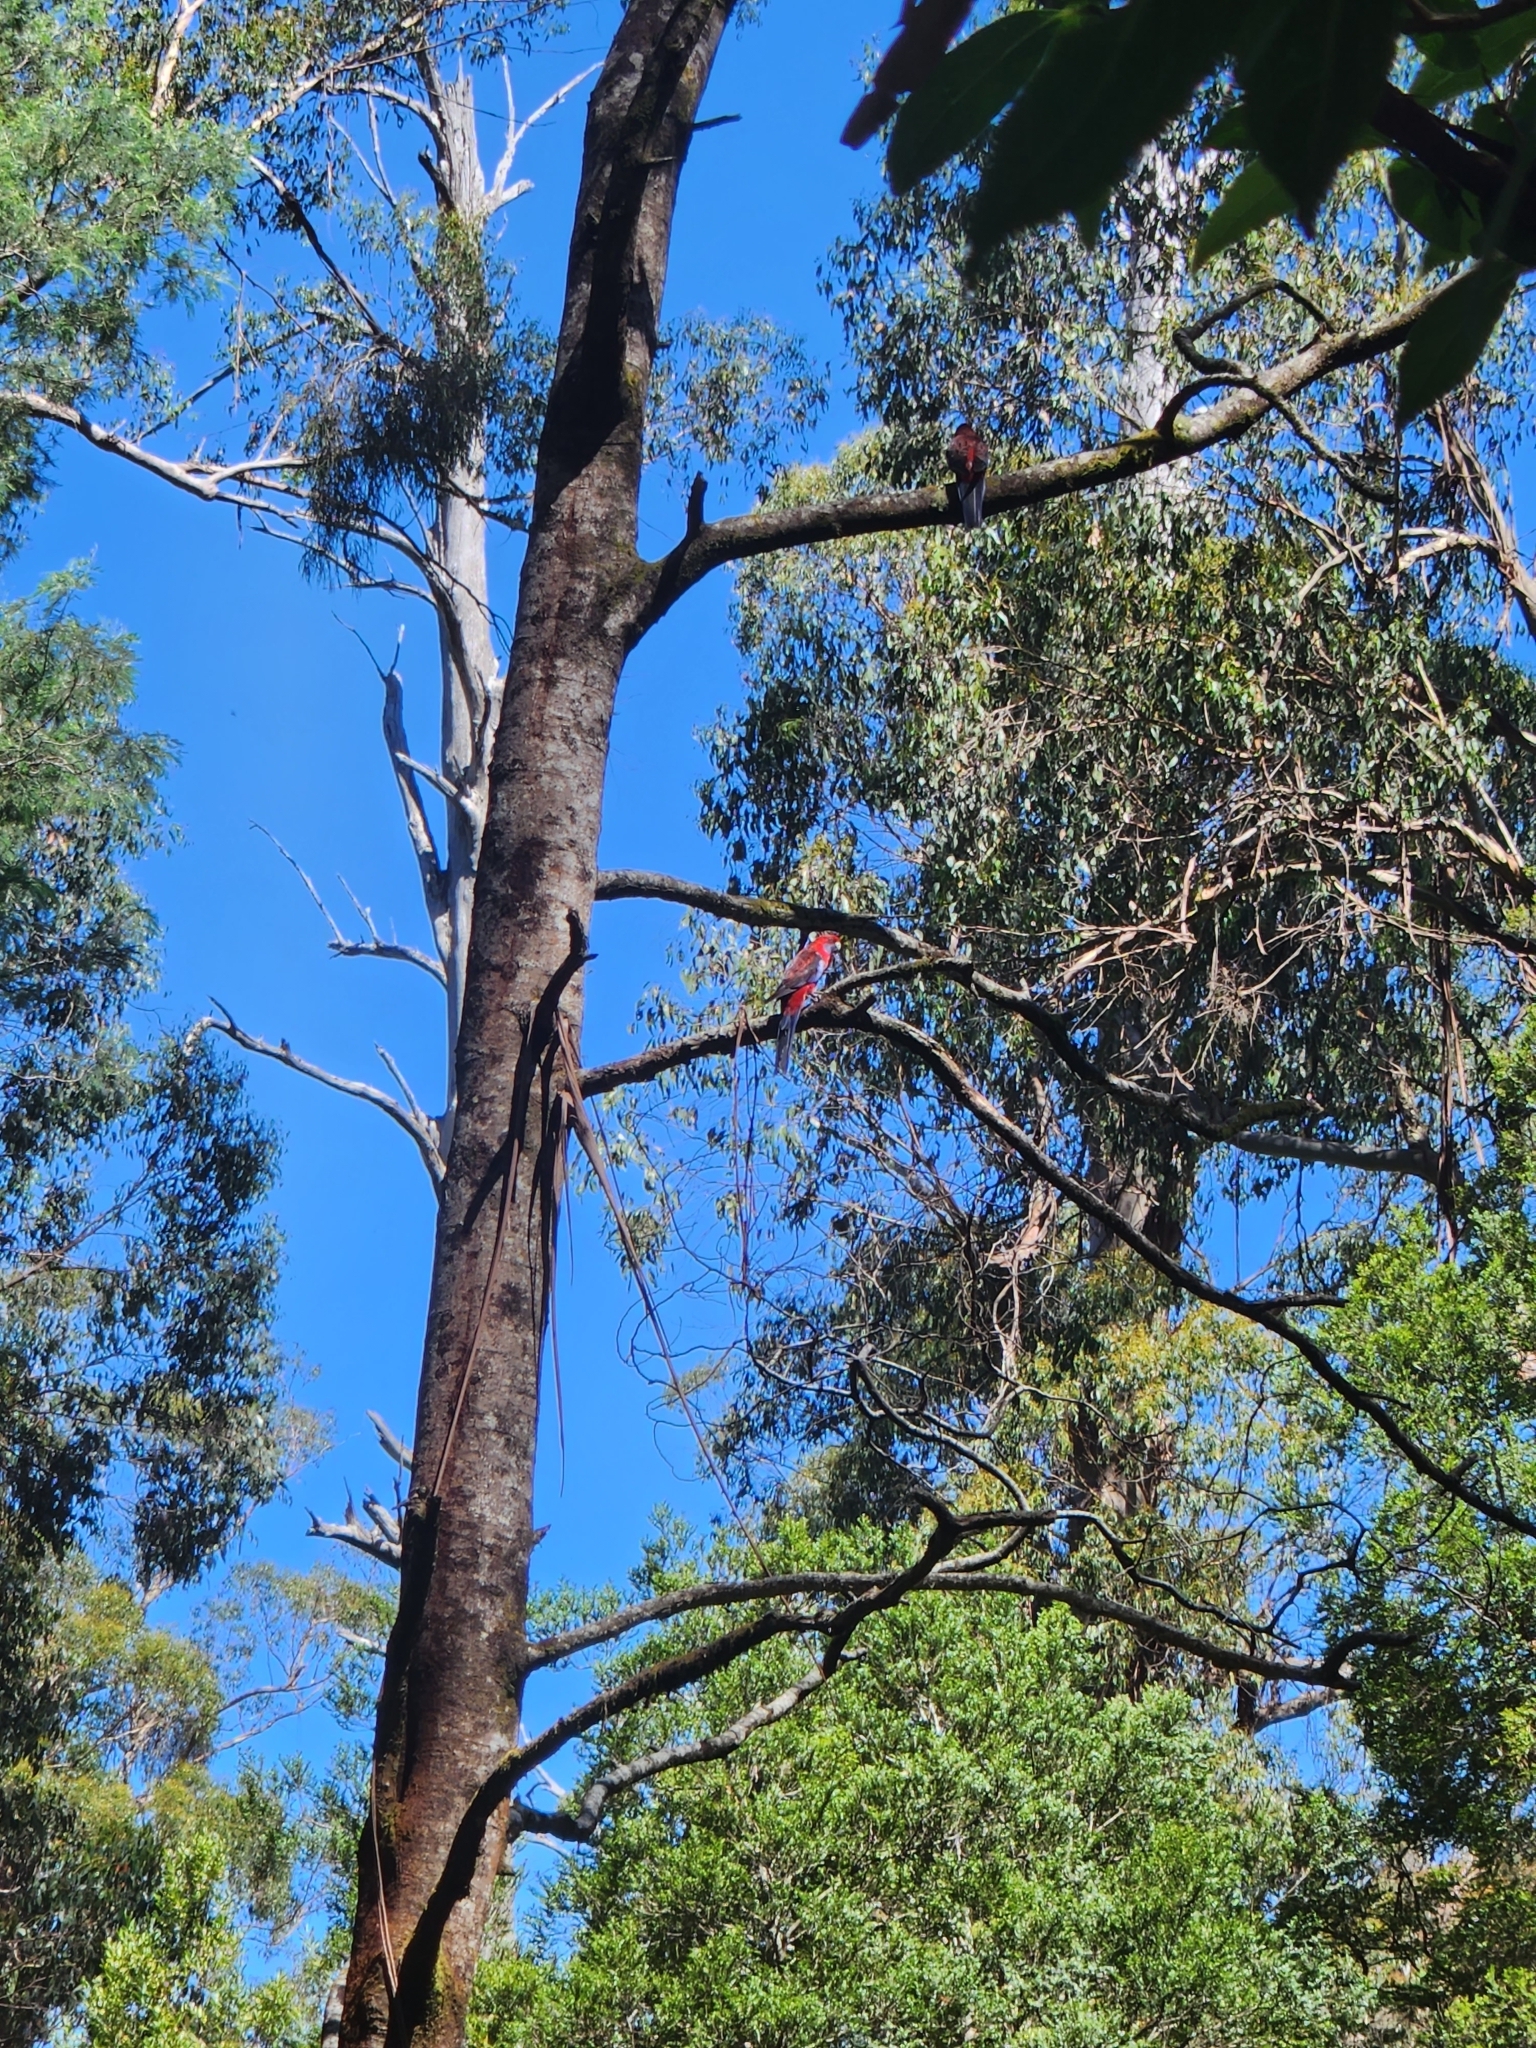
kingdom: Animalia
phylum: Chordata
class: Aves
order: Psittaciformes
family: Psittacidae
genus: Platycercus
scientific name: Platycercus elegans
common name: Crimson rosella
